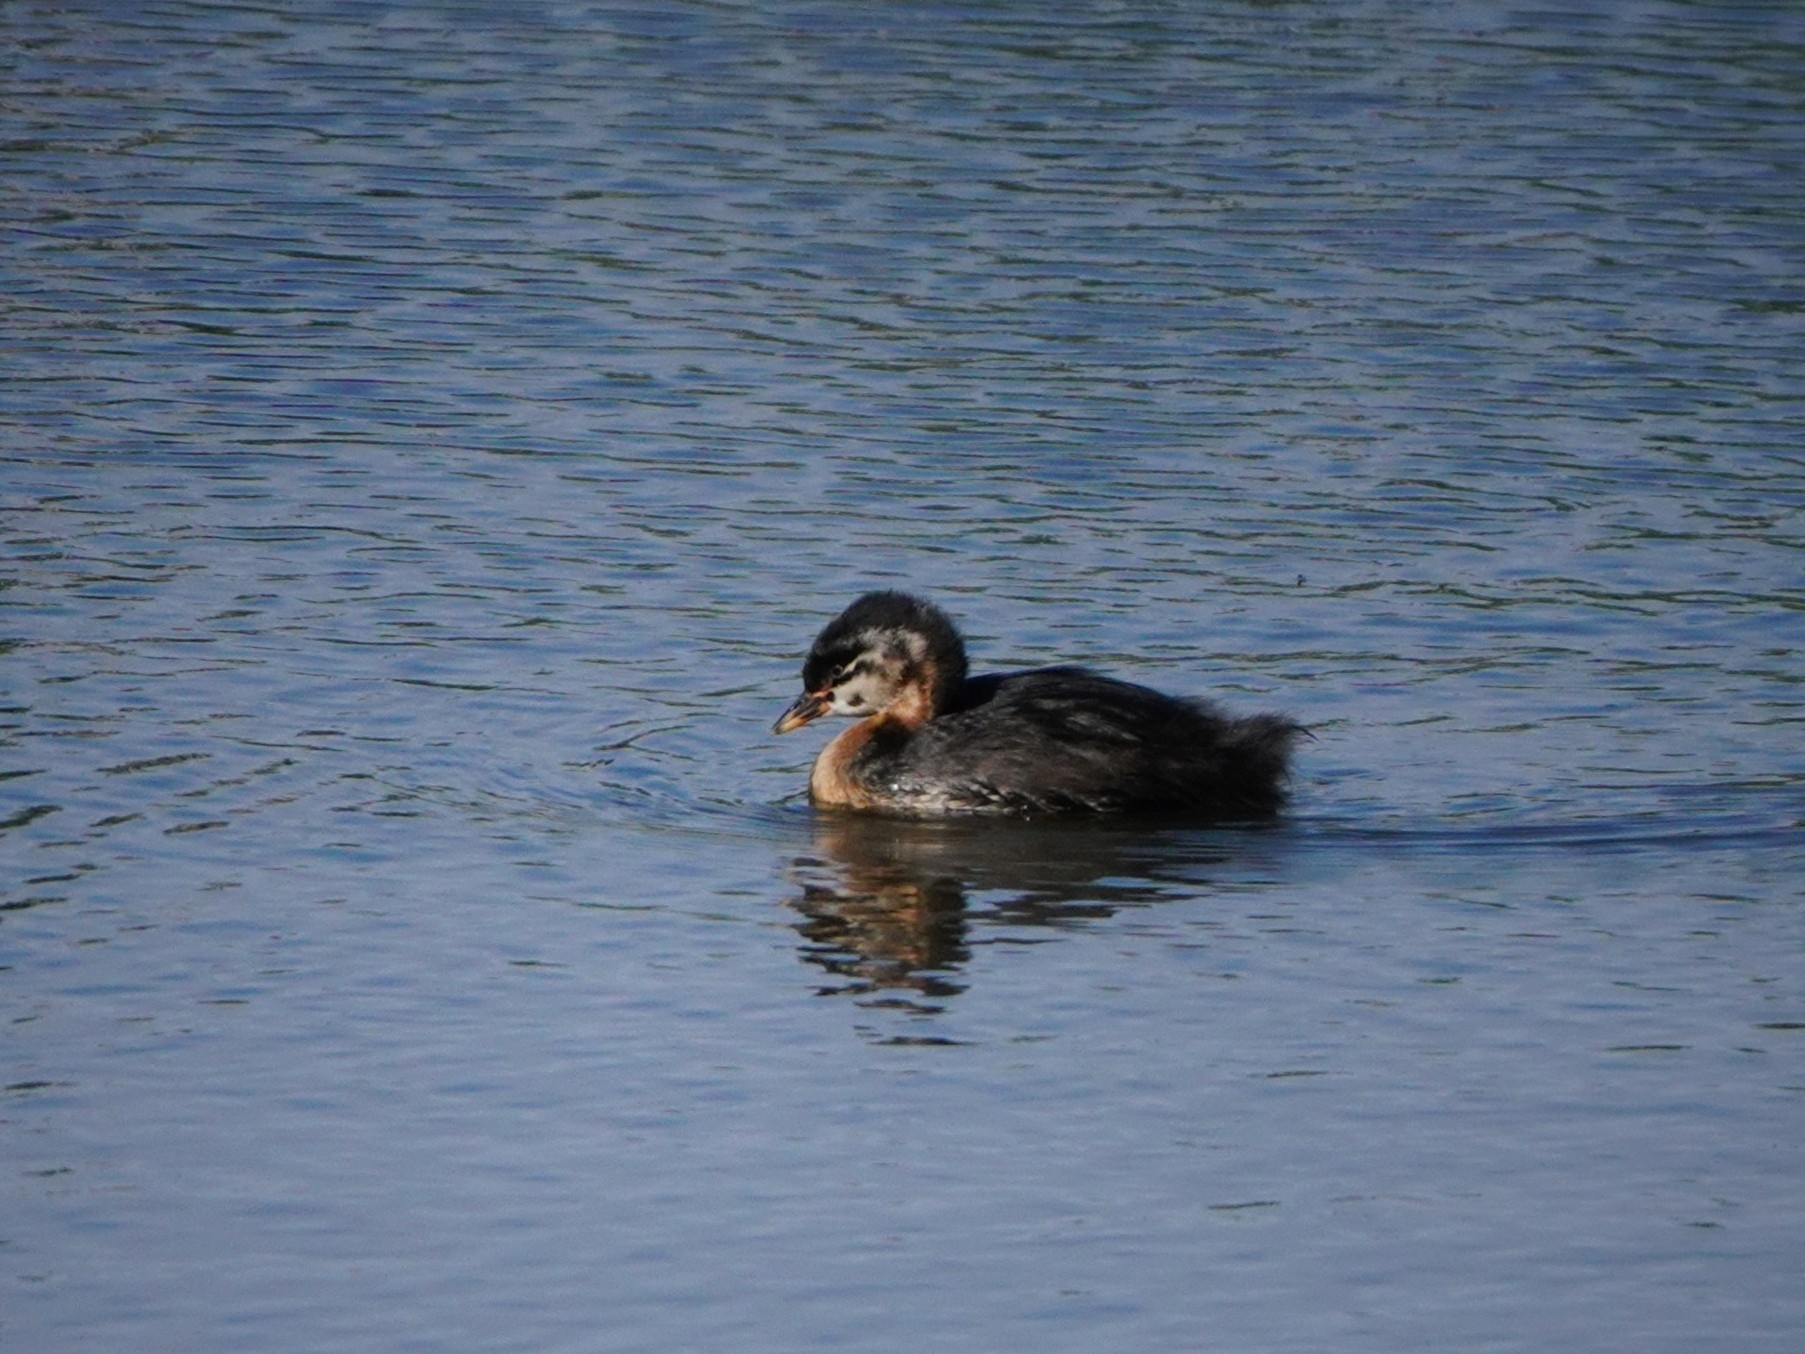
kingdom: Animalia
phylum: Chordata
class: Aves
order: Podicipediformes
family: Podicipedidae
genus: Podiceps
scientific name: Podiceps grisegena
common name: Red-necked grebe
